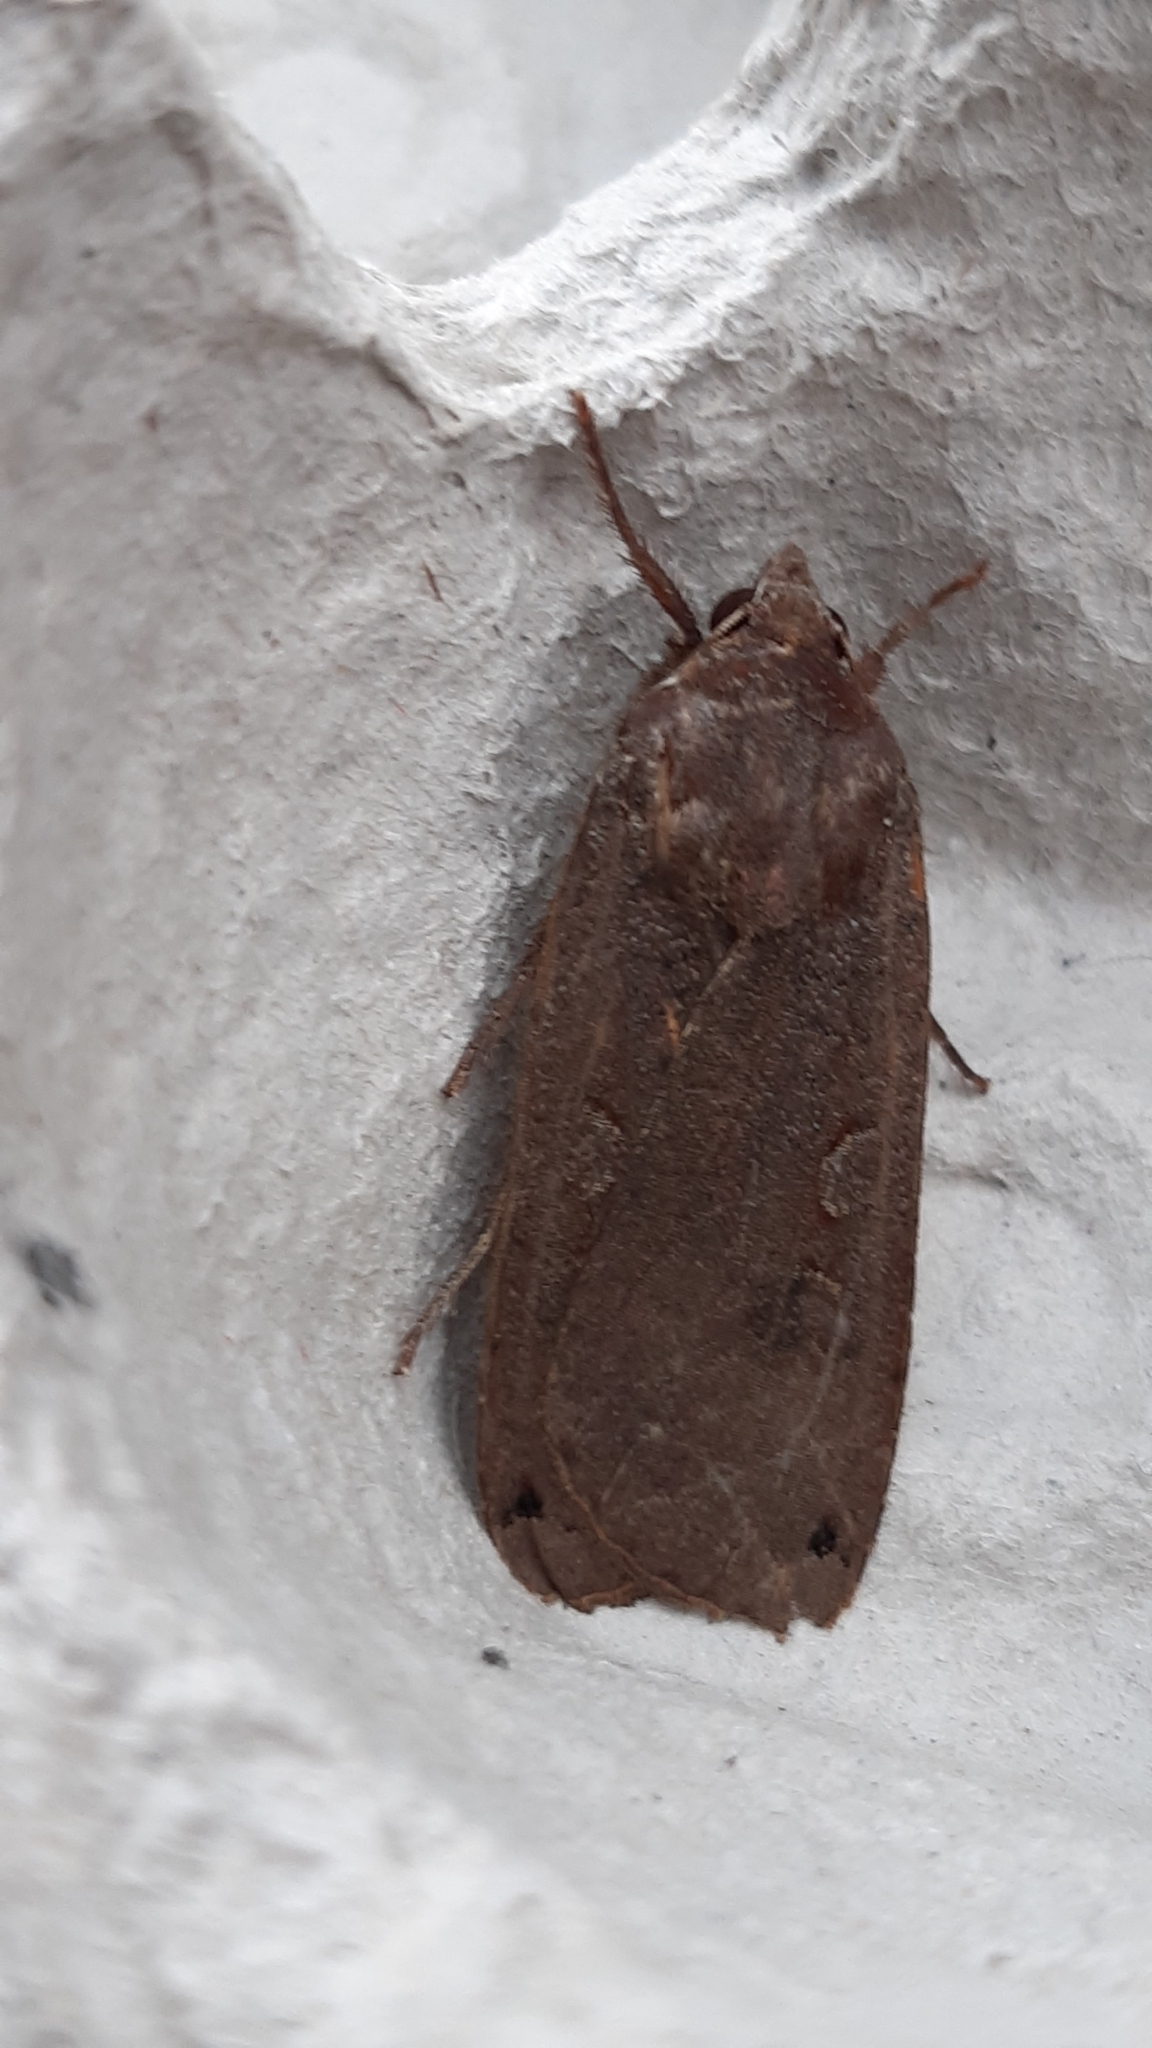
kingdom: Animalia
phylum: Arthropoda
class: Insecta
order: Lepidoptera
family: Noctuidae
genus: Noctua
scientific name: Noctua pronuba
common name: Large yellow underwing
